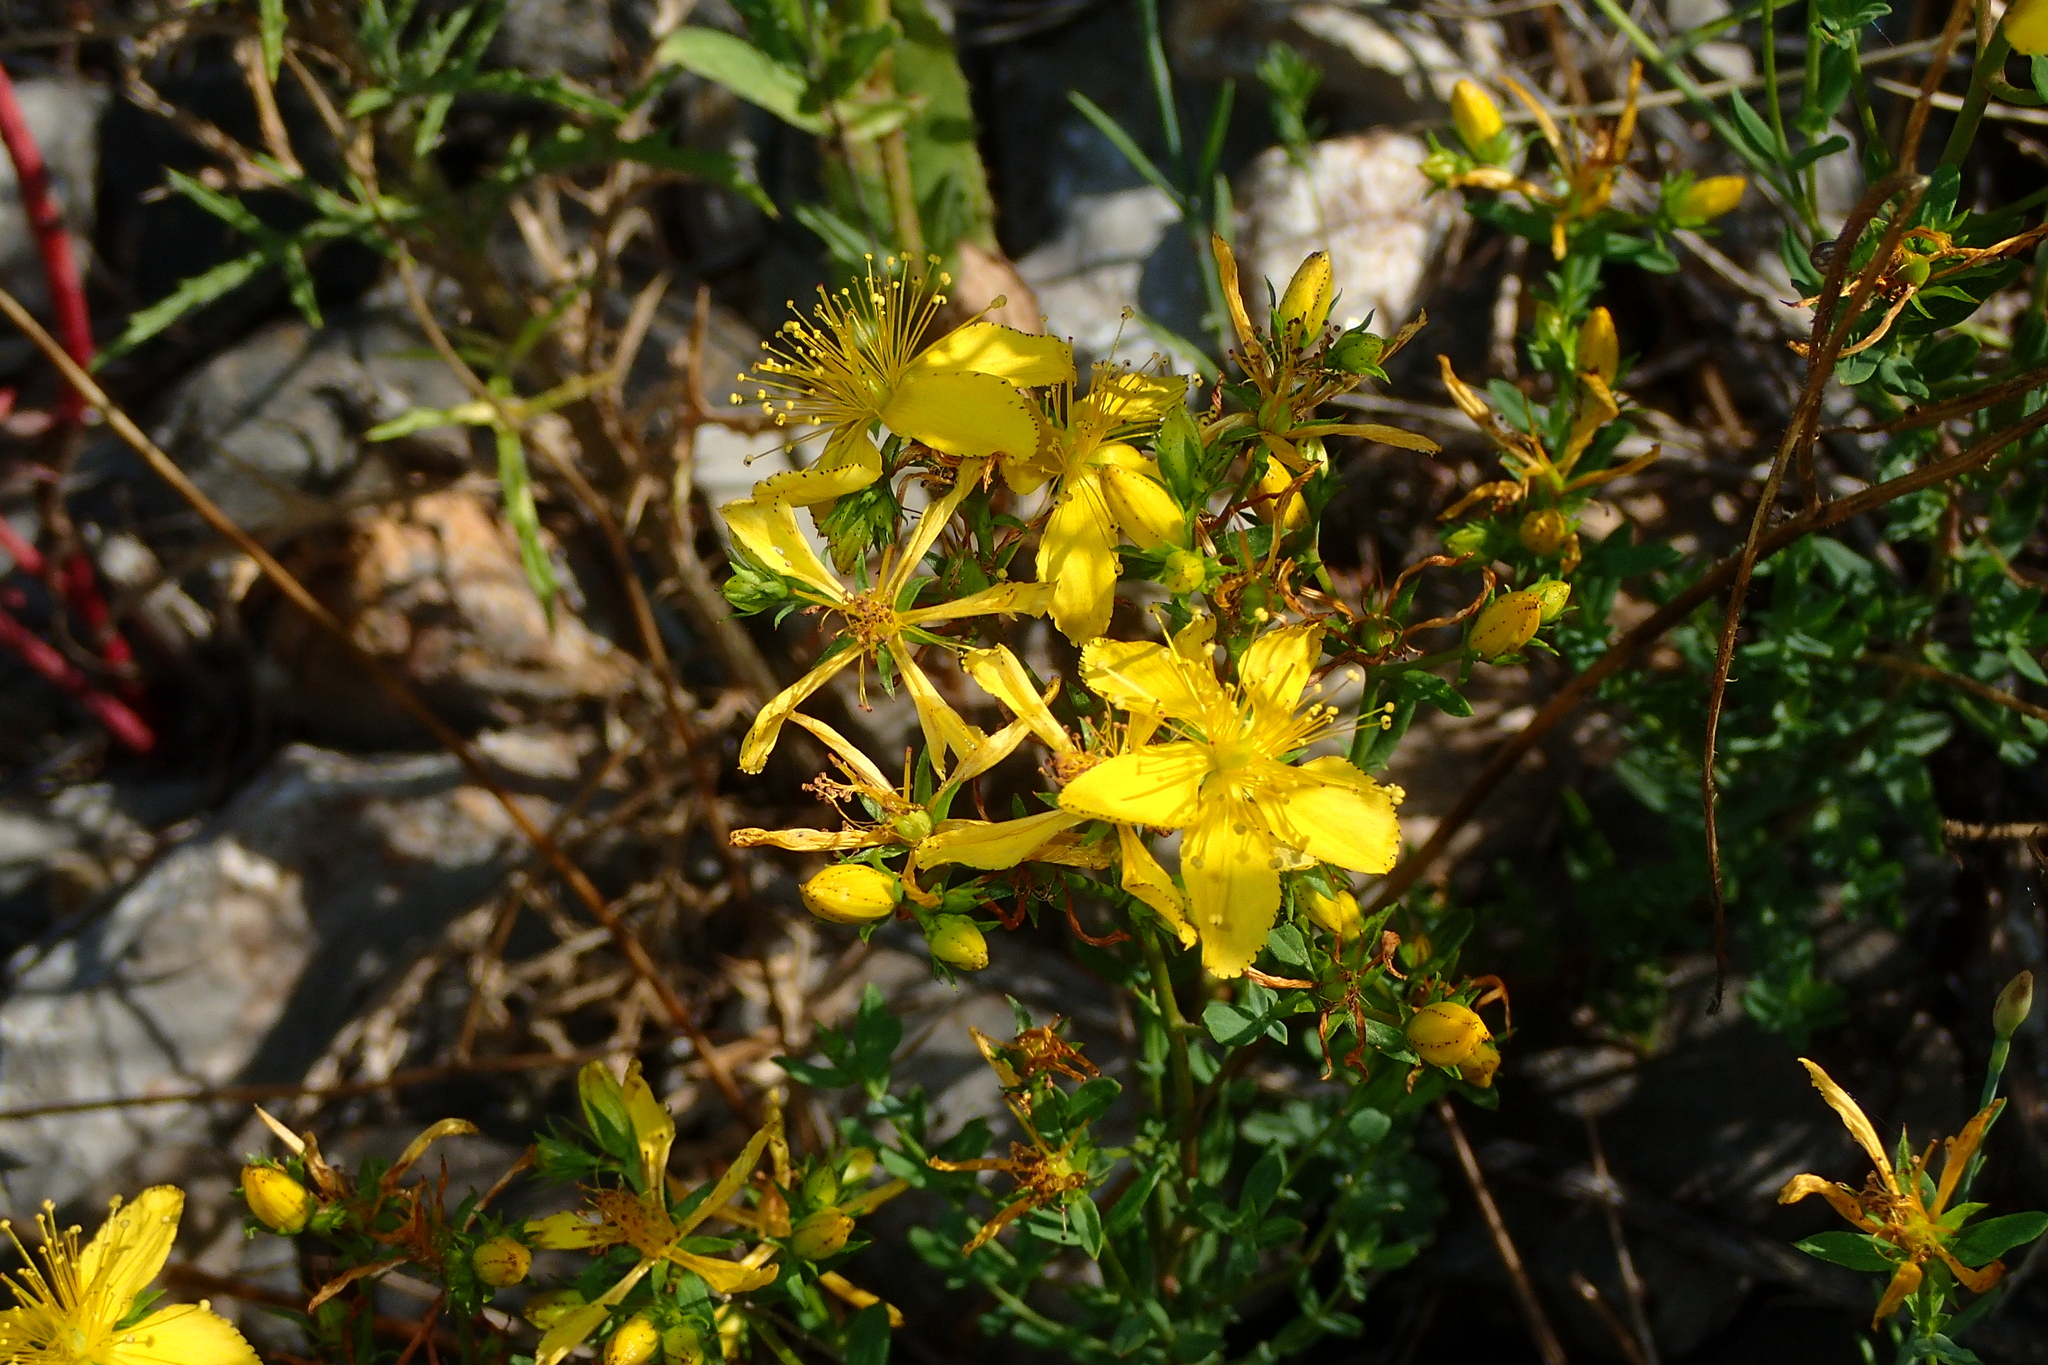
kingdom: Plantae
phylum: Tracheophyta
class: Magnoliopsida
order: Malpighiales
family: Hypericaceae
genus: Hypericum
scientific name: Hypericum perforatum
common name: Common st. johnswort
